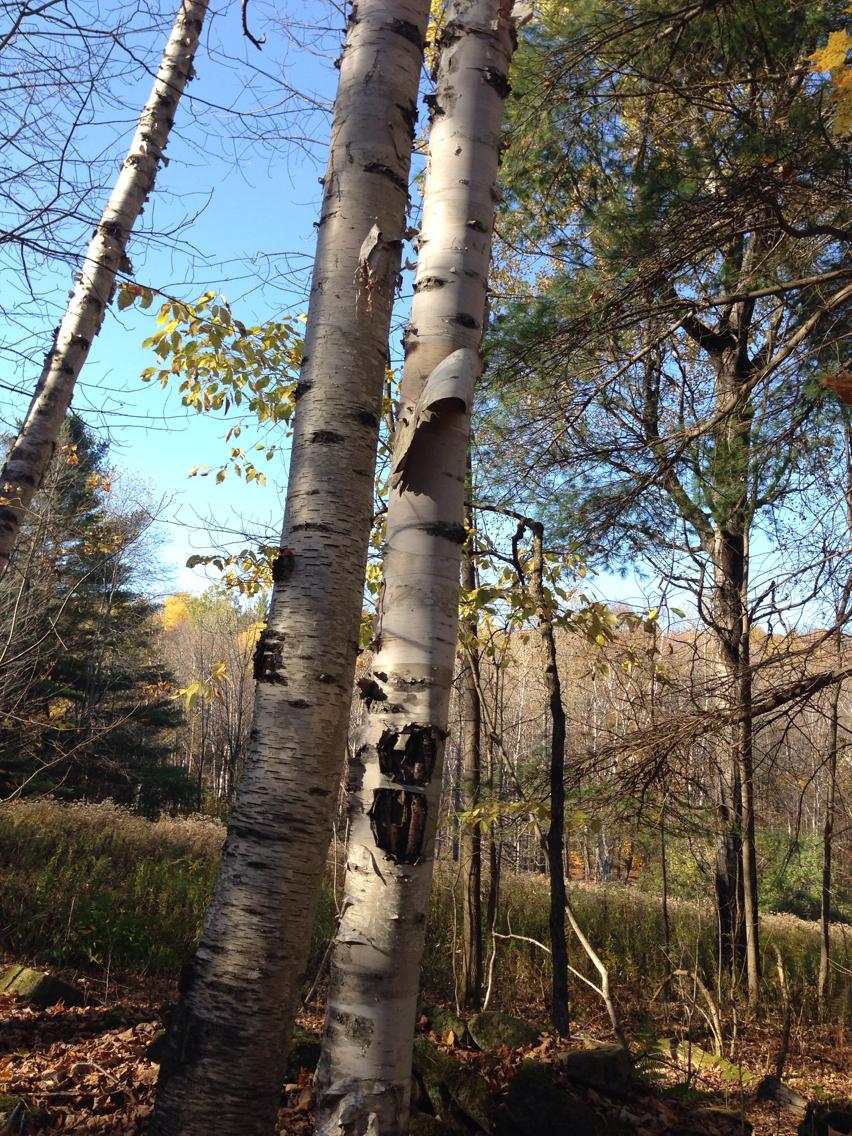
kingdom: Plantae
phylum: Tracheophyta
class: Magnoliopsida
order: Fagales
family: Betulaceae
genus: Betula
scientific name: Betula papyrifera
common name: Paper birch
